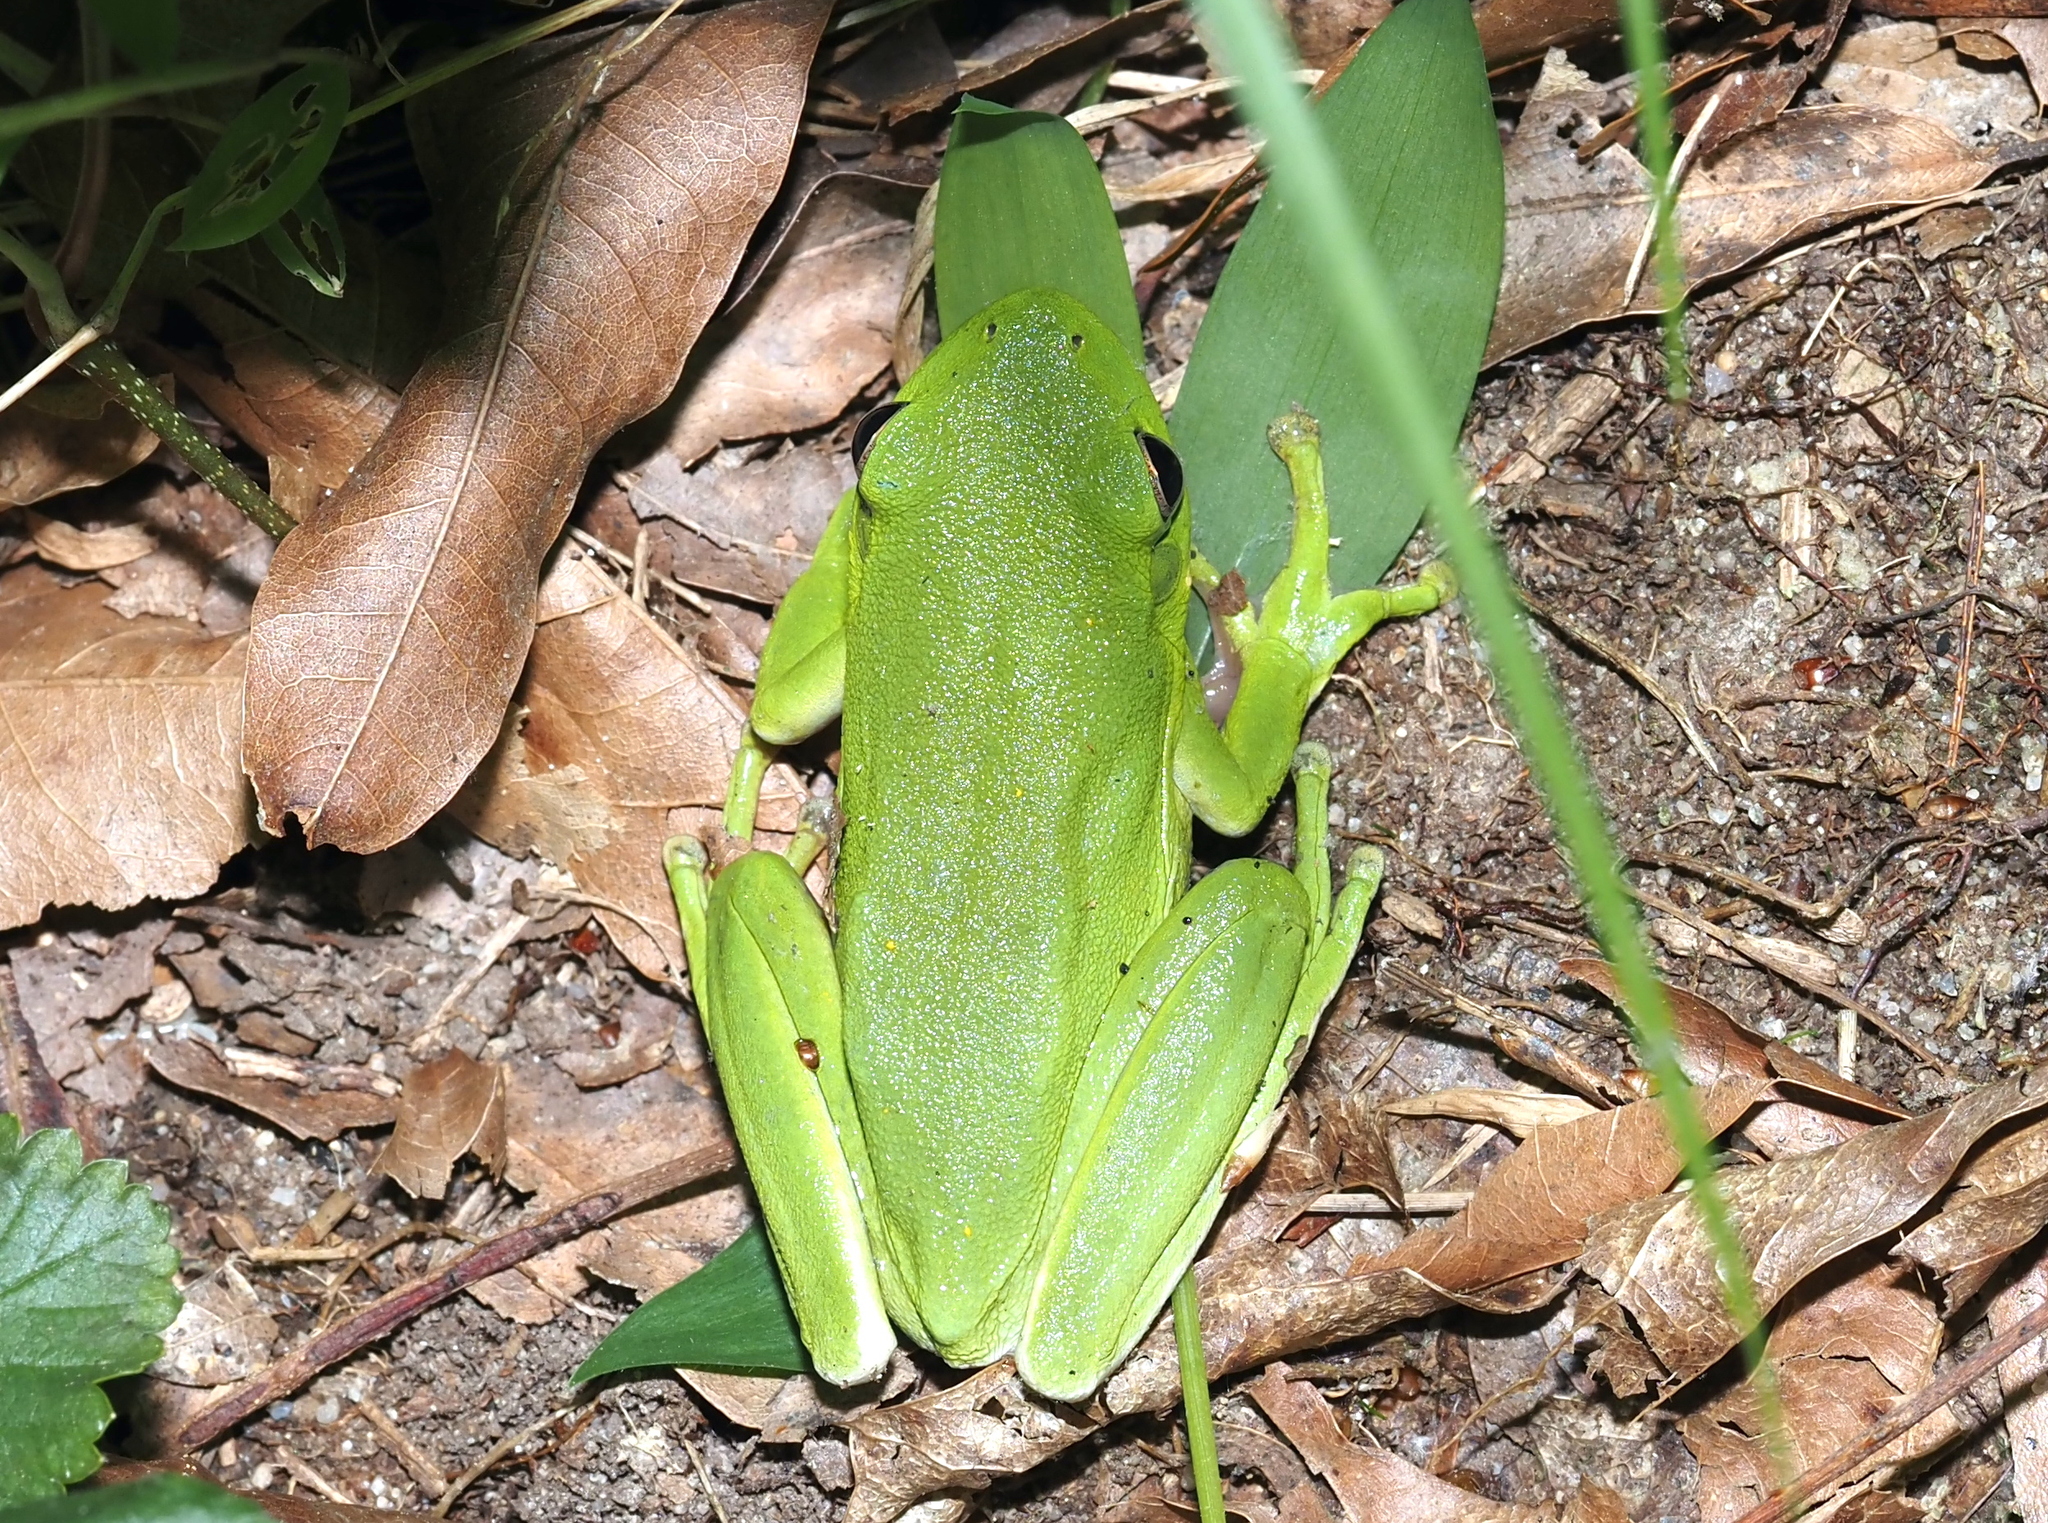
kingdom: Animalia
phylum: Chordata
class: Amphibia
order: Anura
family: Hylidae
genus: Dryophytes
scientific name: Dryophytes cinereus
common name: Green treefrog
